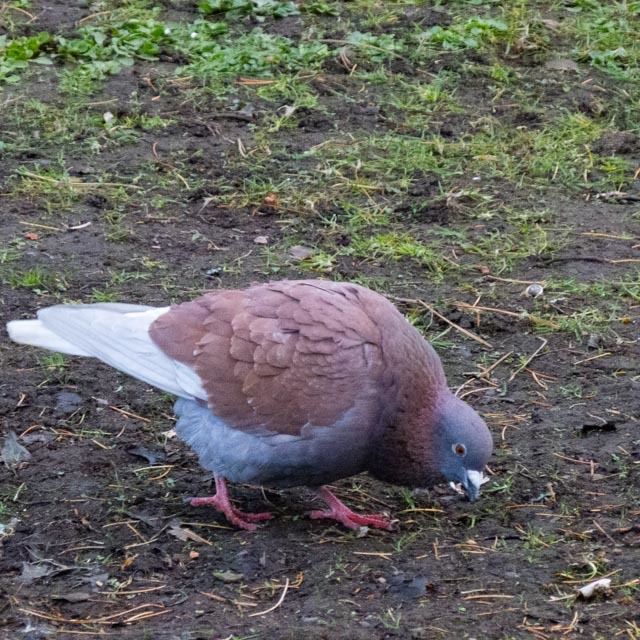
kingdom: Animalia
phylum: Chordata
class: Aves
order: Columbiformes
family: Columbidae
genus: Columba
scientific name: Columba livia
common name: Rock pigeon
